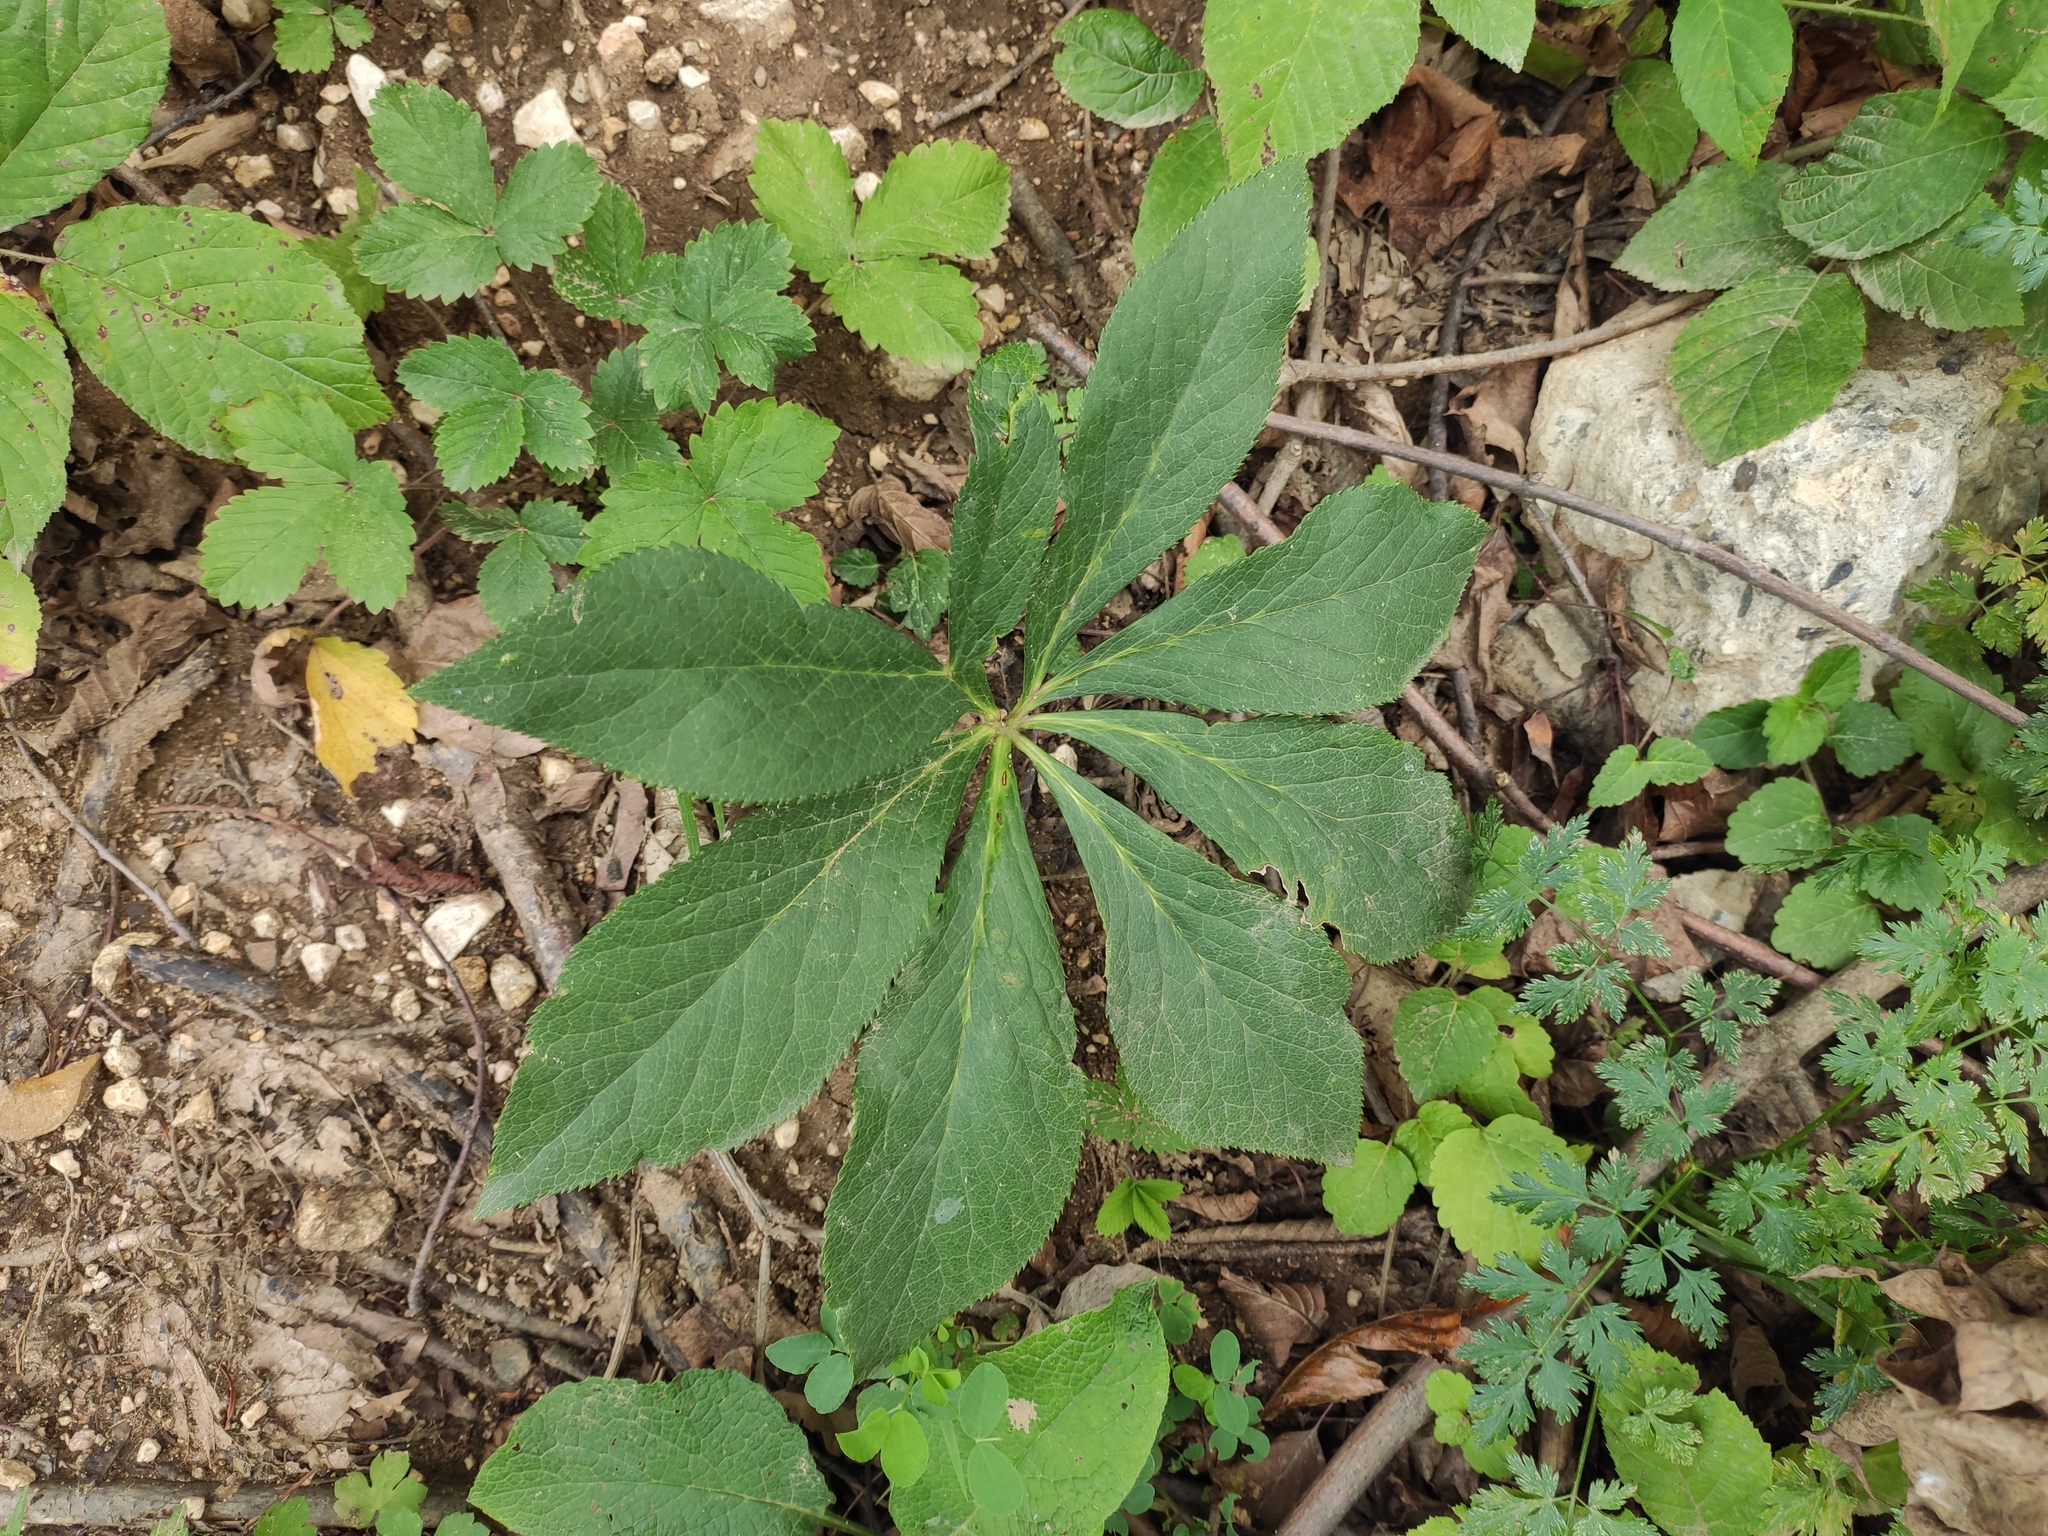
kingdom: Plantae
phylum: Tracheophyta
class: Magnoliopsida
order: Ranunculales
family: Ranunculaceae
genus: Helleborus
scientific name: Helleborus orientalis
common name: Lenten-rose
